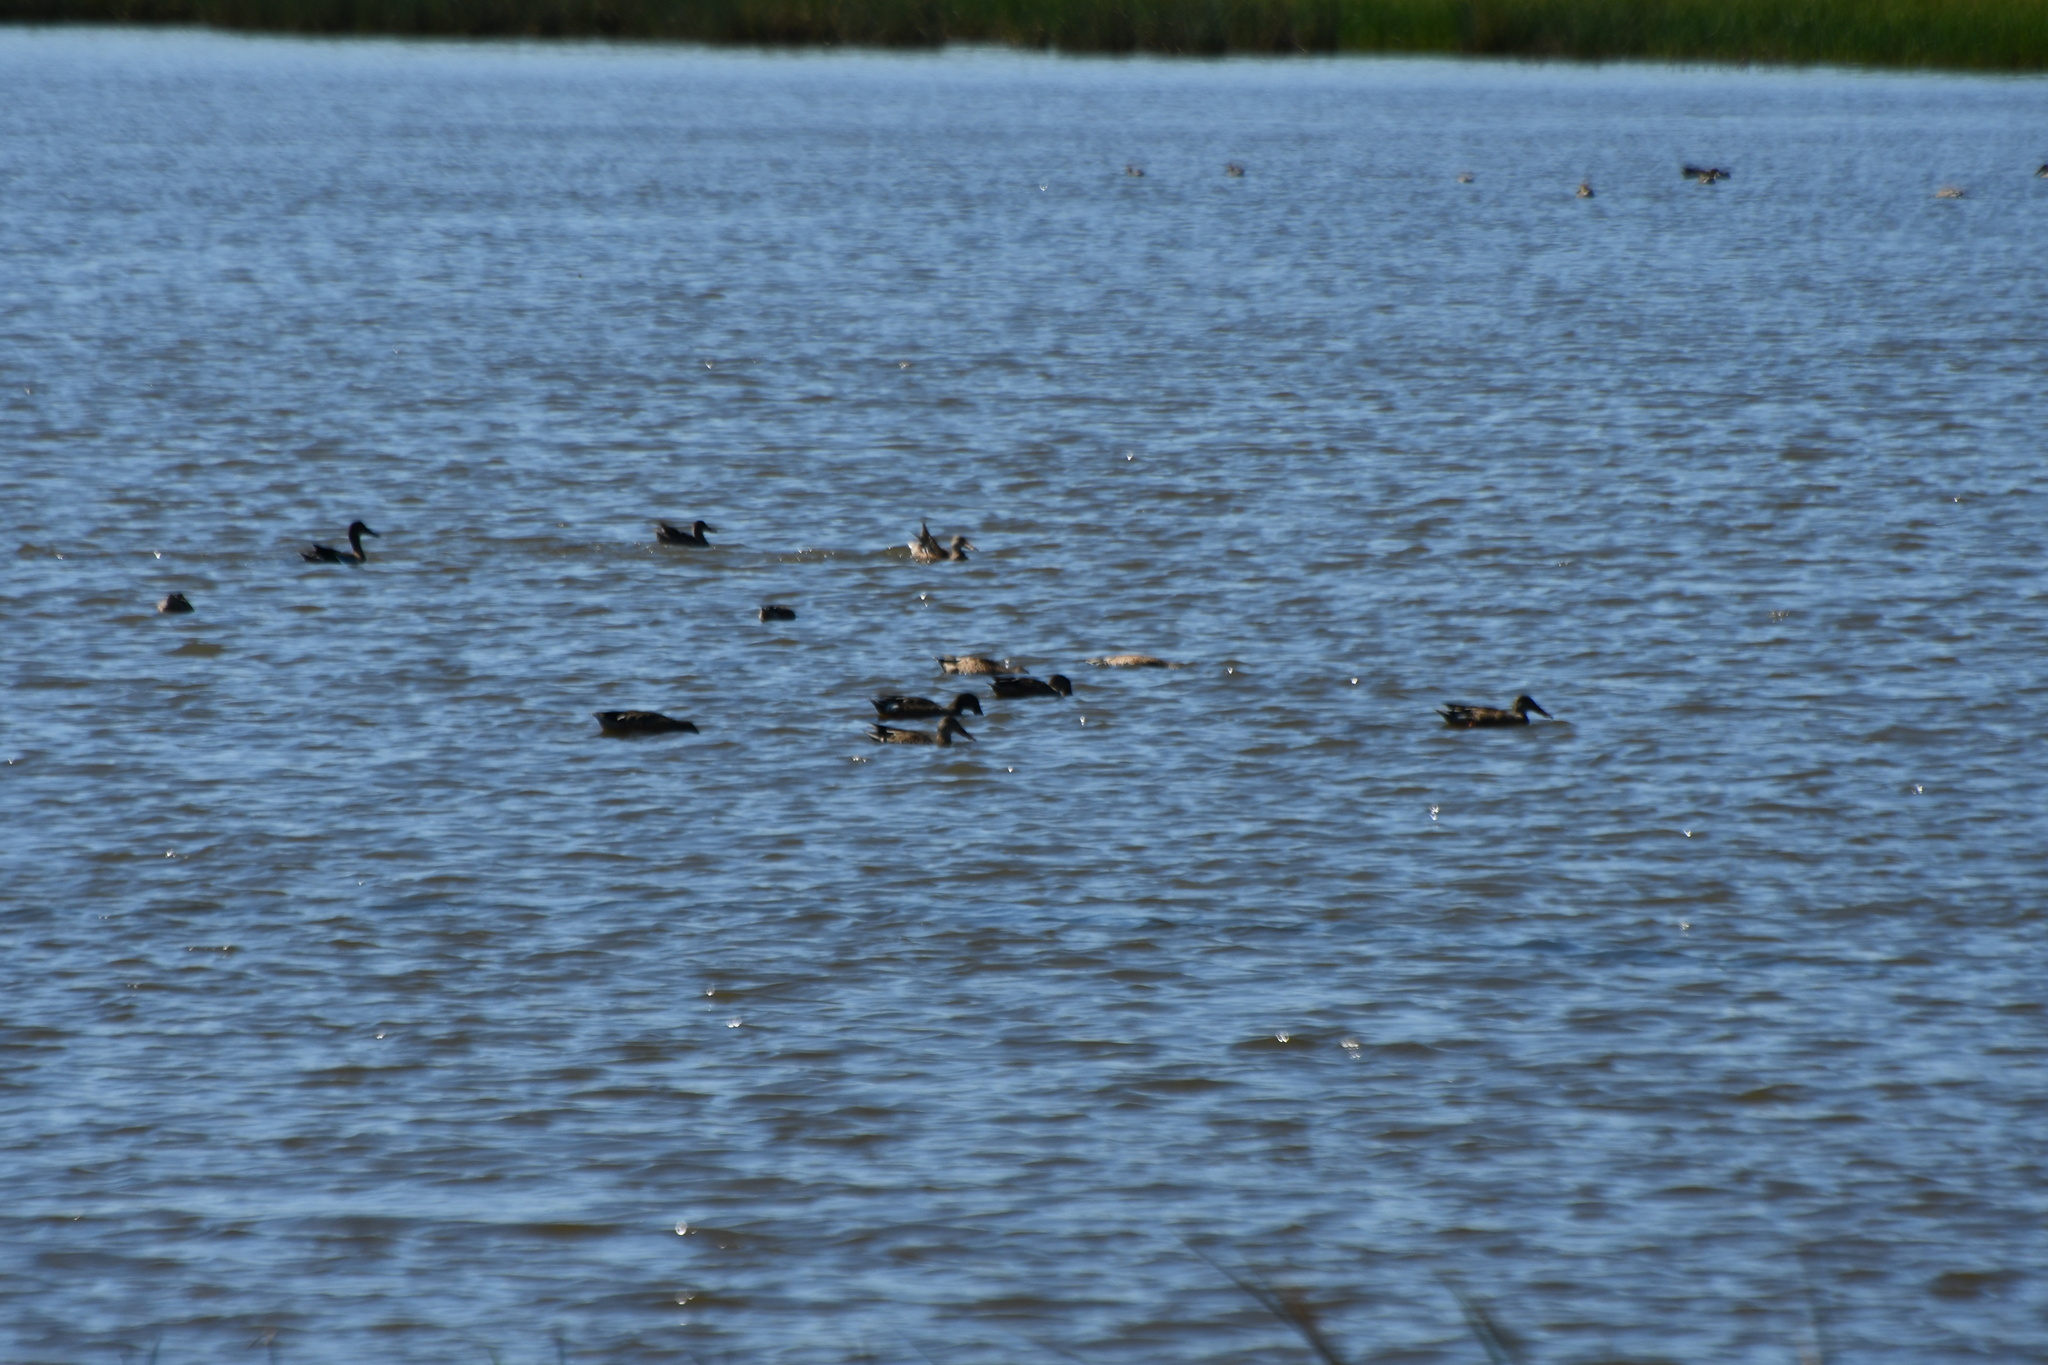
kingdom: Animalia
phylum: Chordata
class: Aves
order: Anseriformes
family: Anatidae
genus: Spatula
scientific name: Spatula clypeata
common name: Northern shoveler
